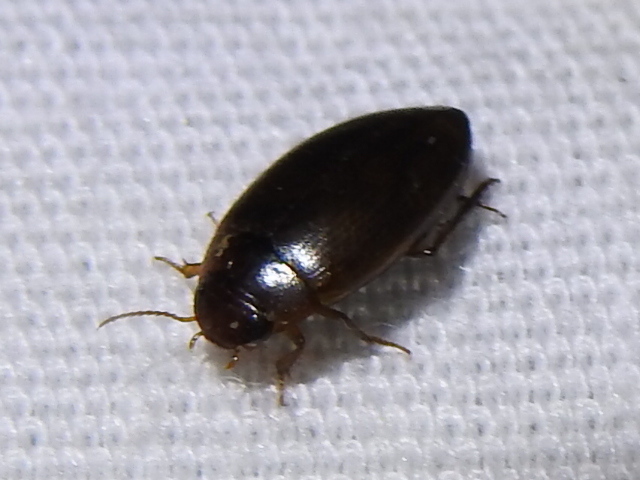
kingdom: Animalia
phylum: Arthropoda
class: Insecta
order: Coleoptera
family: Dytiscidae
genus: Copelatus
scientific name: Copelatus chevrolati
